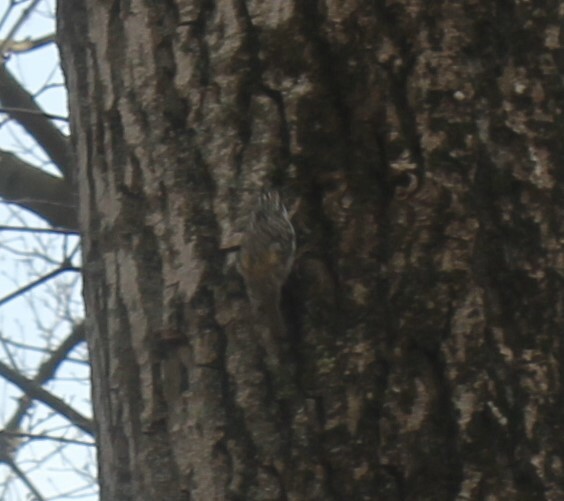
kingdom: Animalia
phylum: Chordata
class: Aves
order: Passeriformes
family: Certhiidae
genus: Certhia
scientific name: Certhia familiaris
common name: Eurasian treecreeper
